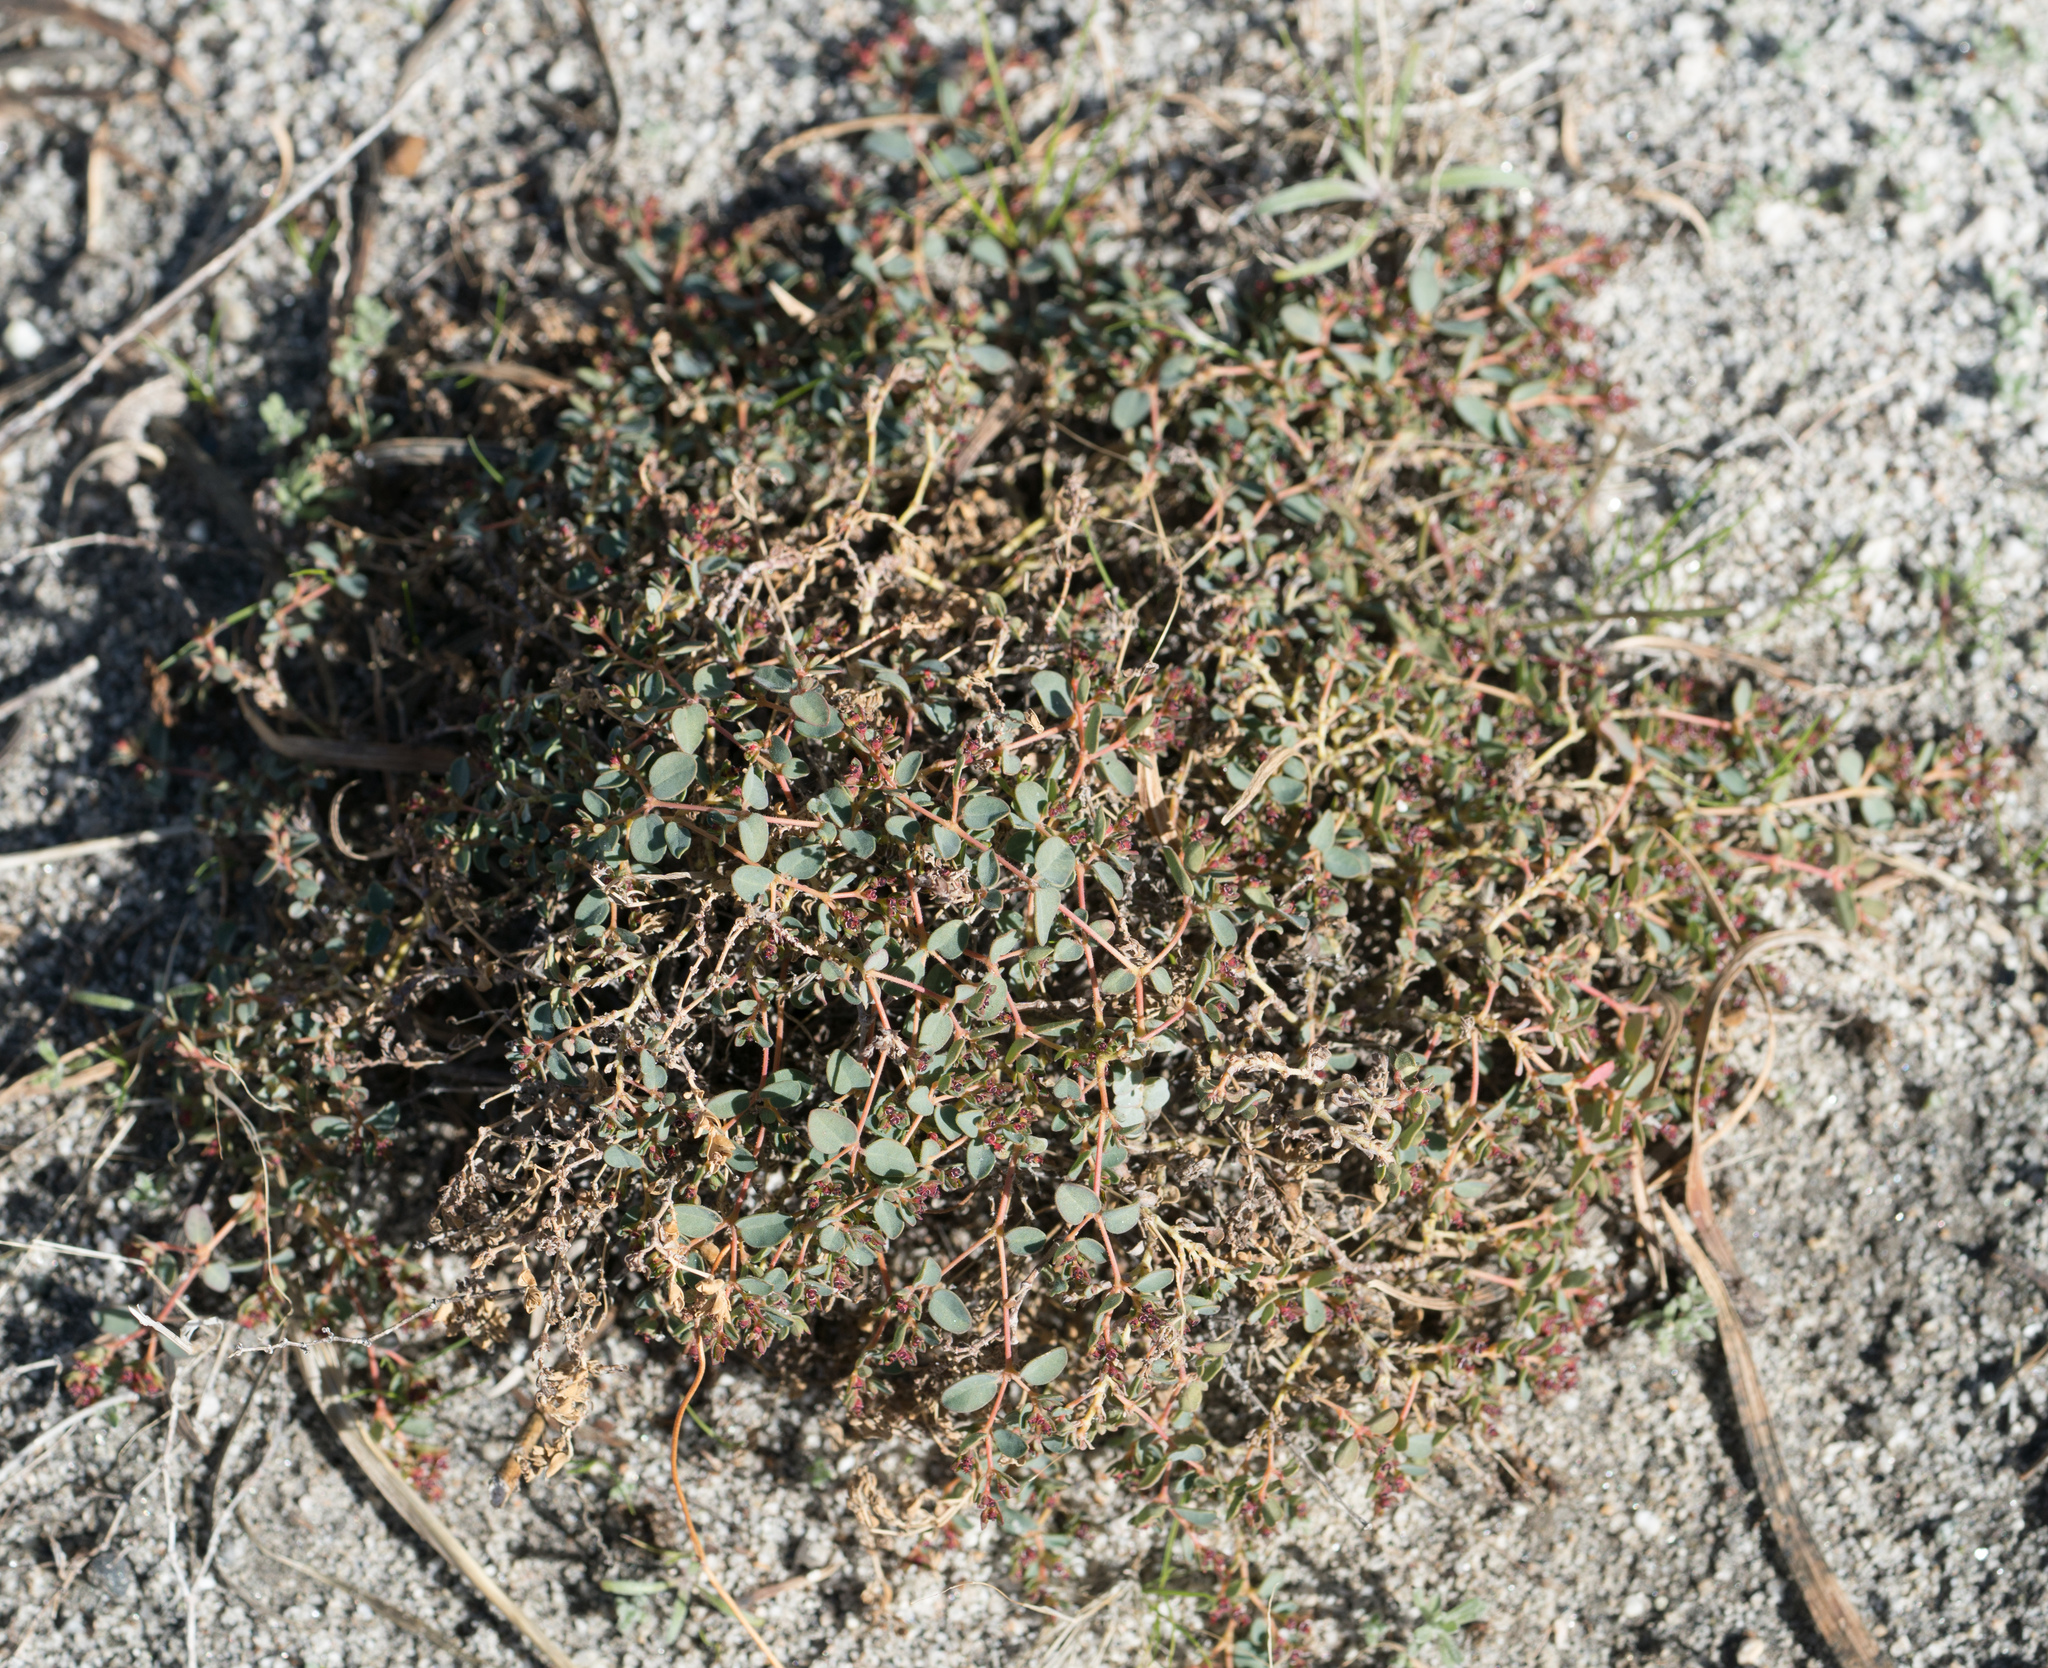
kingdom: Plantae
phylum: Tracheophyta
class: Magnoliopsida
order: Malpighiales
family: Euphorbiaceae
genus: Euphorbia
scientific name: Euphorbia polycarpa
